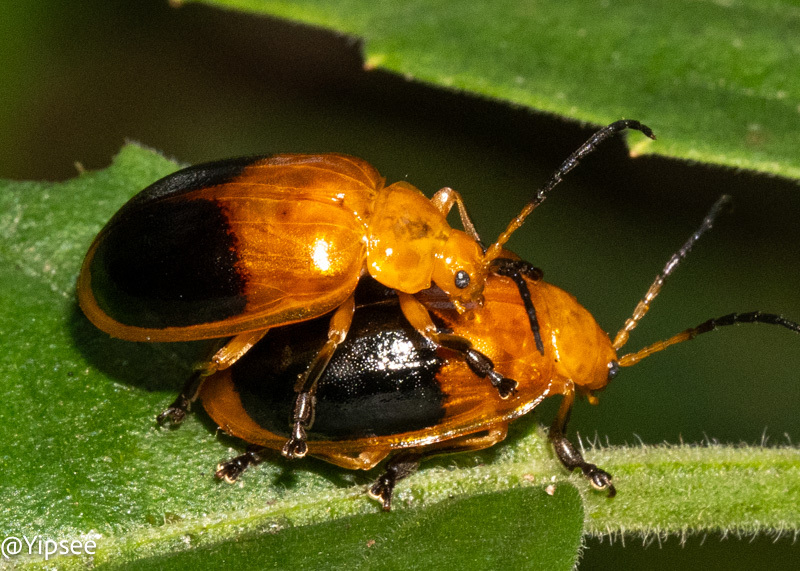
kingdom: Animalia
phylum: Arthropoda
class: Insecta
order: Coleoptera
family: Chrysomelidae
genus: Oides
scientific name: Oides palleata
